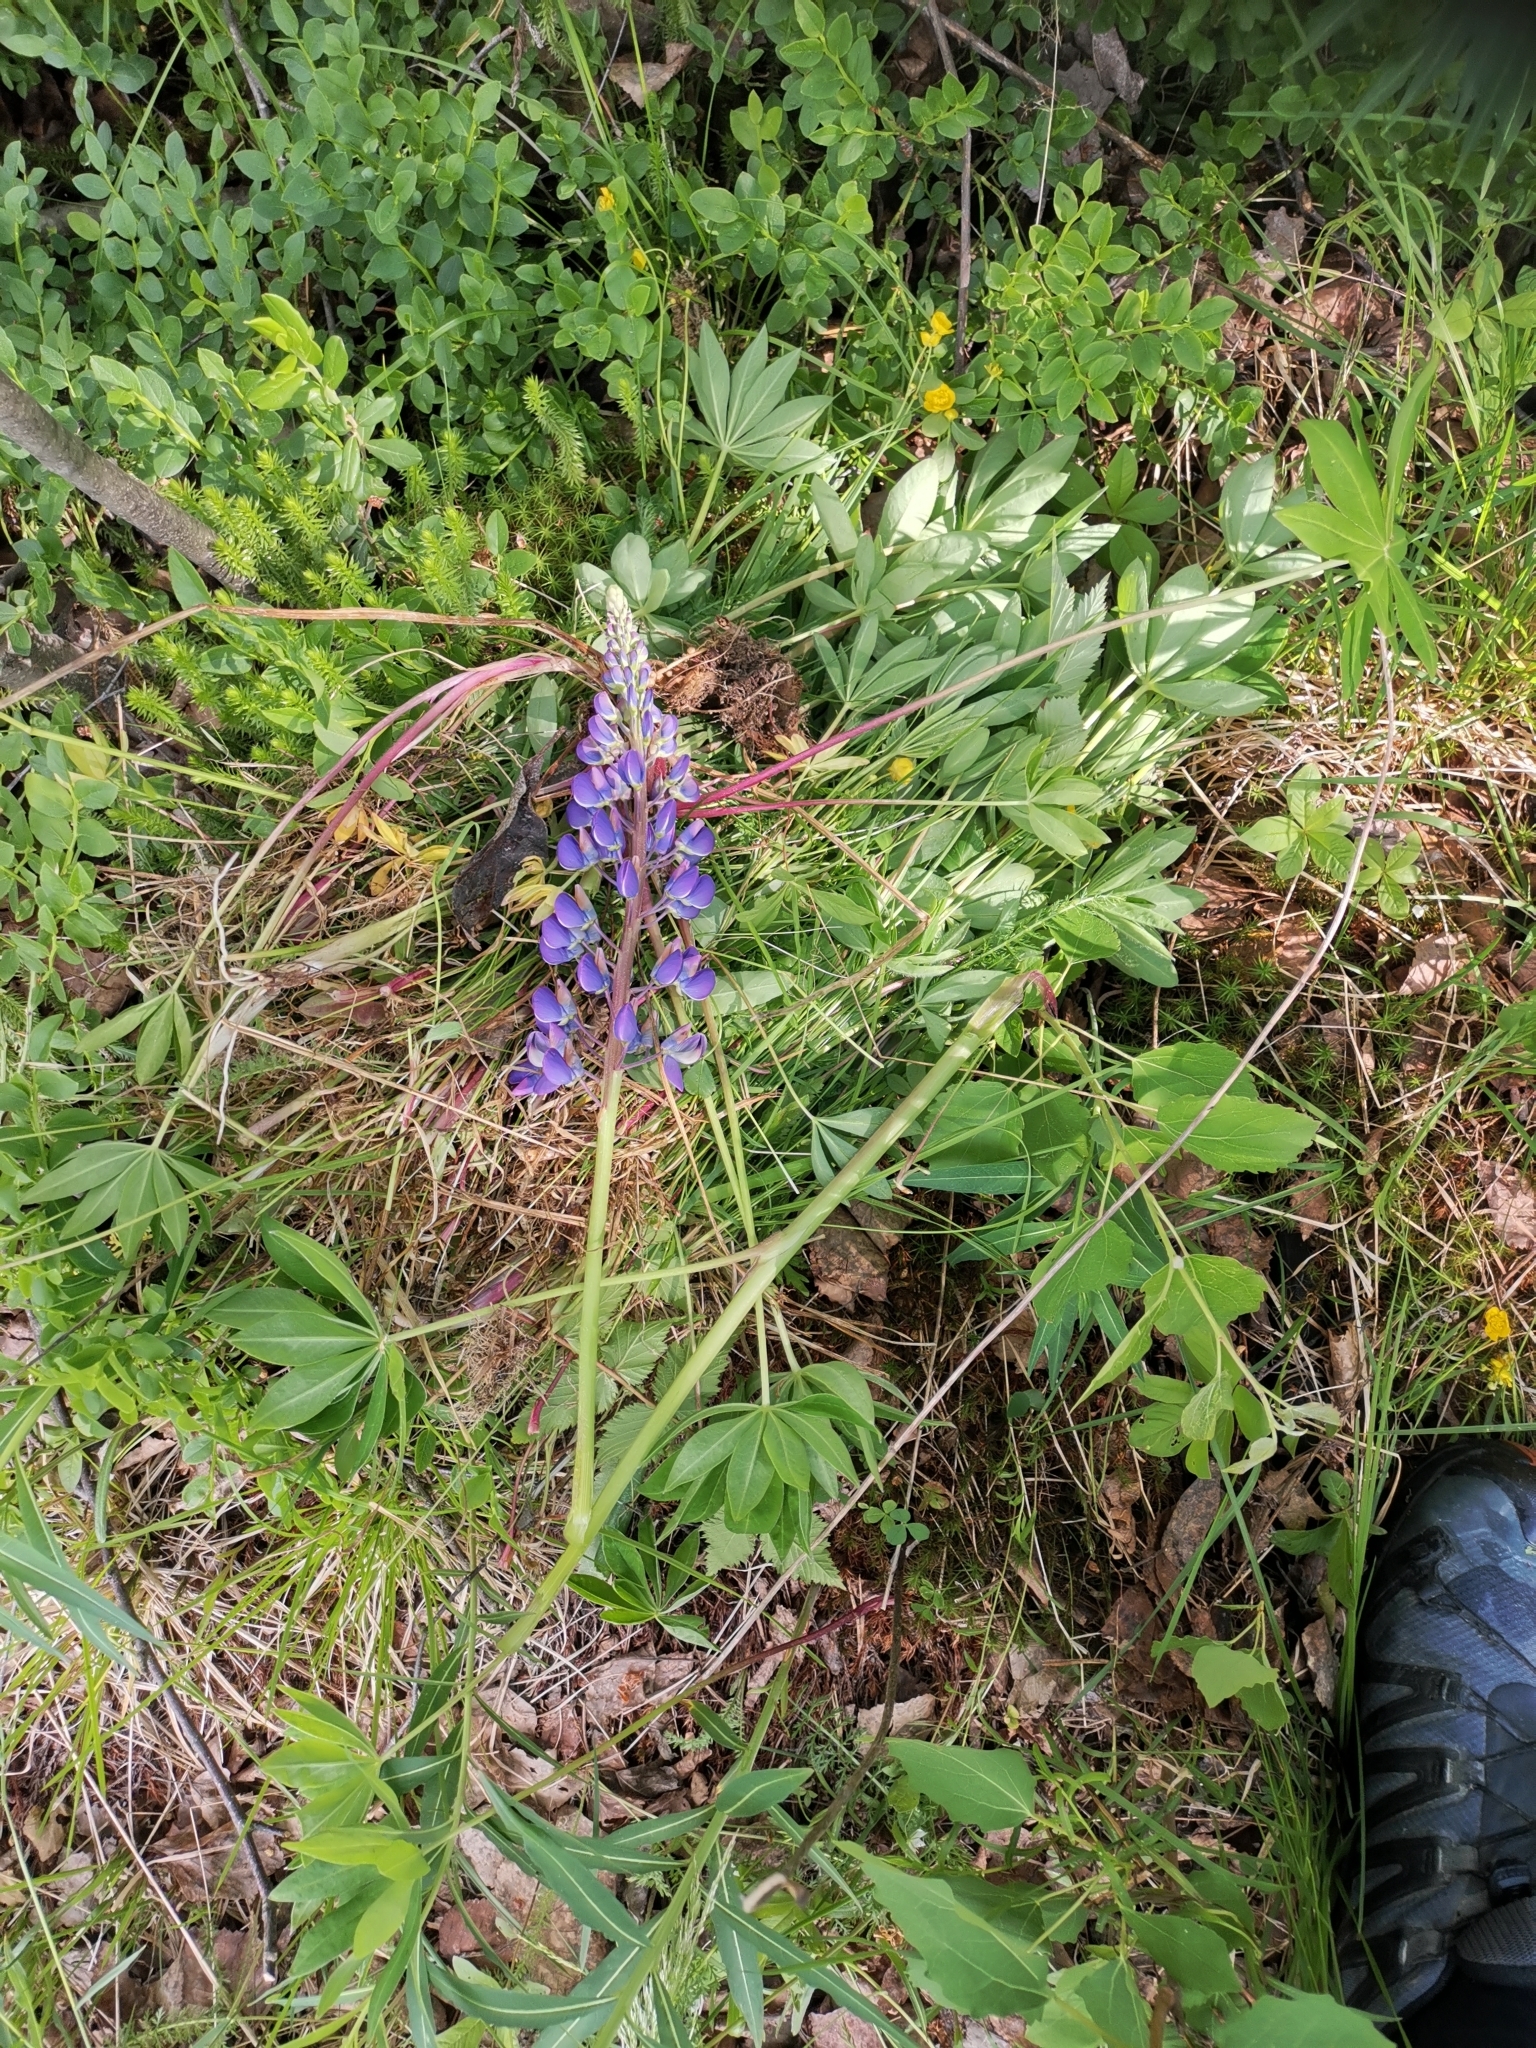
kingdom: Plantae
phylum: Tracheophyta
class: Magnoliopsida
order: Fabales
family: Fabaceae
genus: Lupinus
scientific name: Lupinus polyphyllus
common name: Garden lupin
